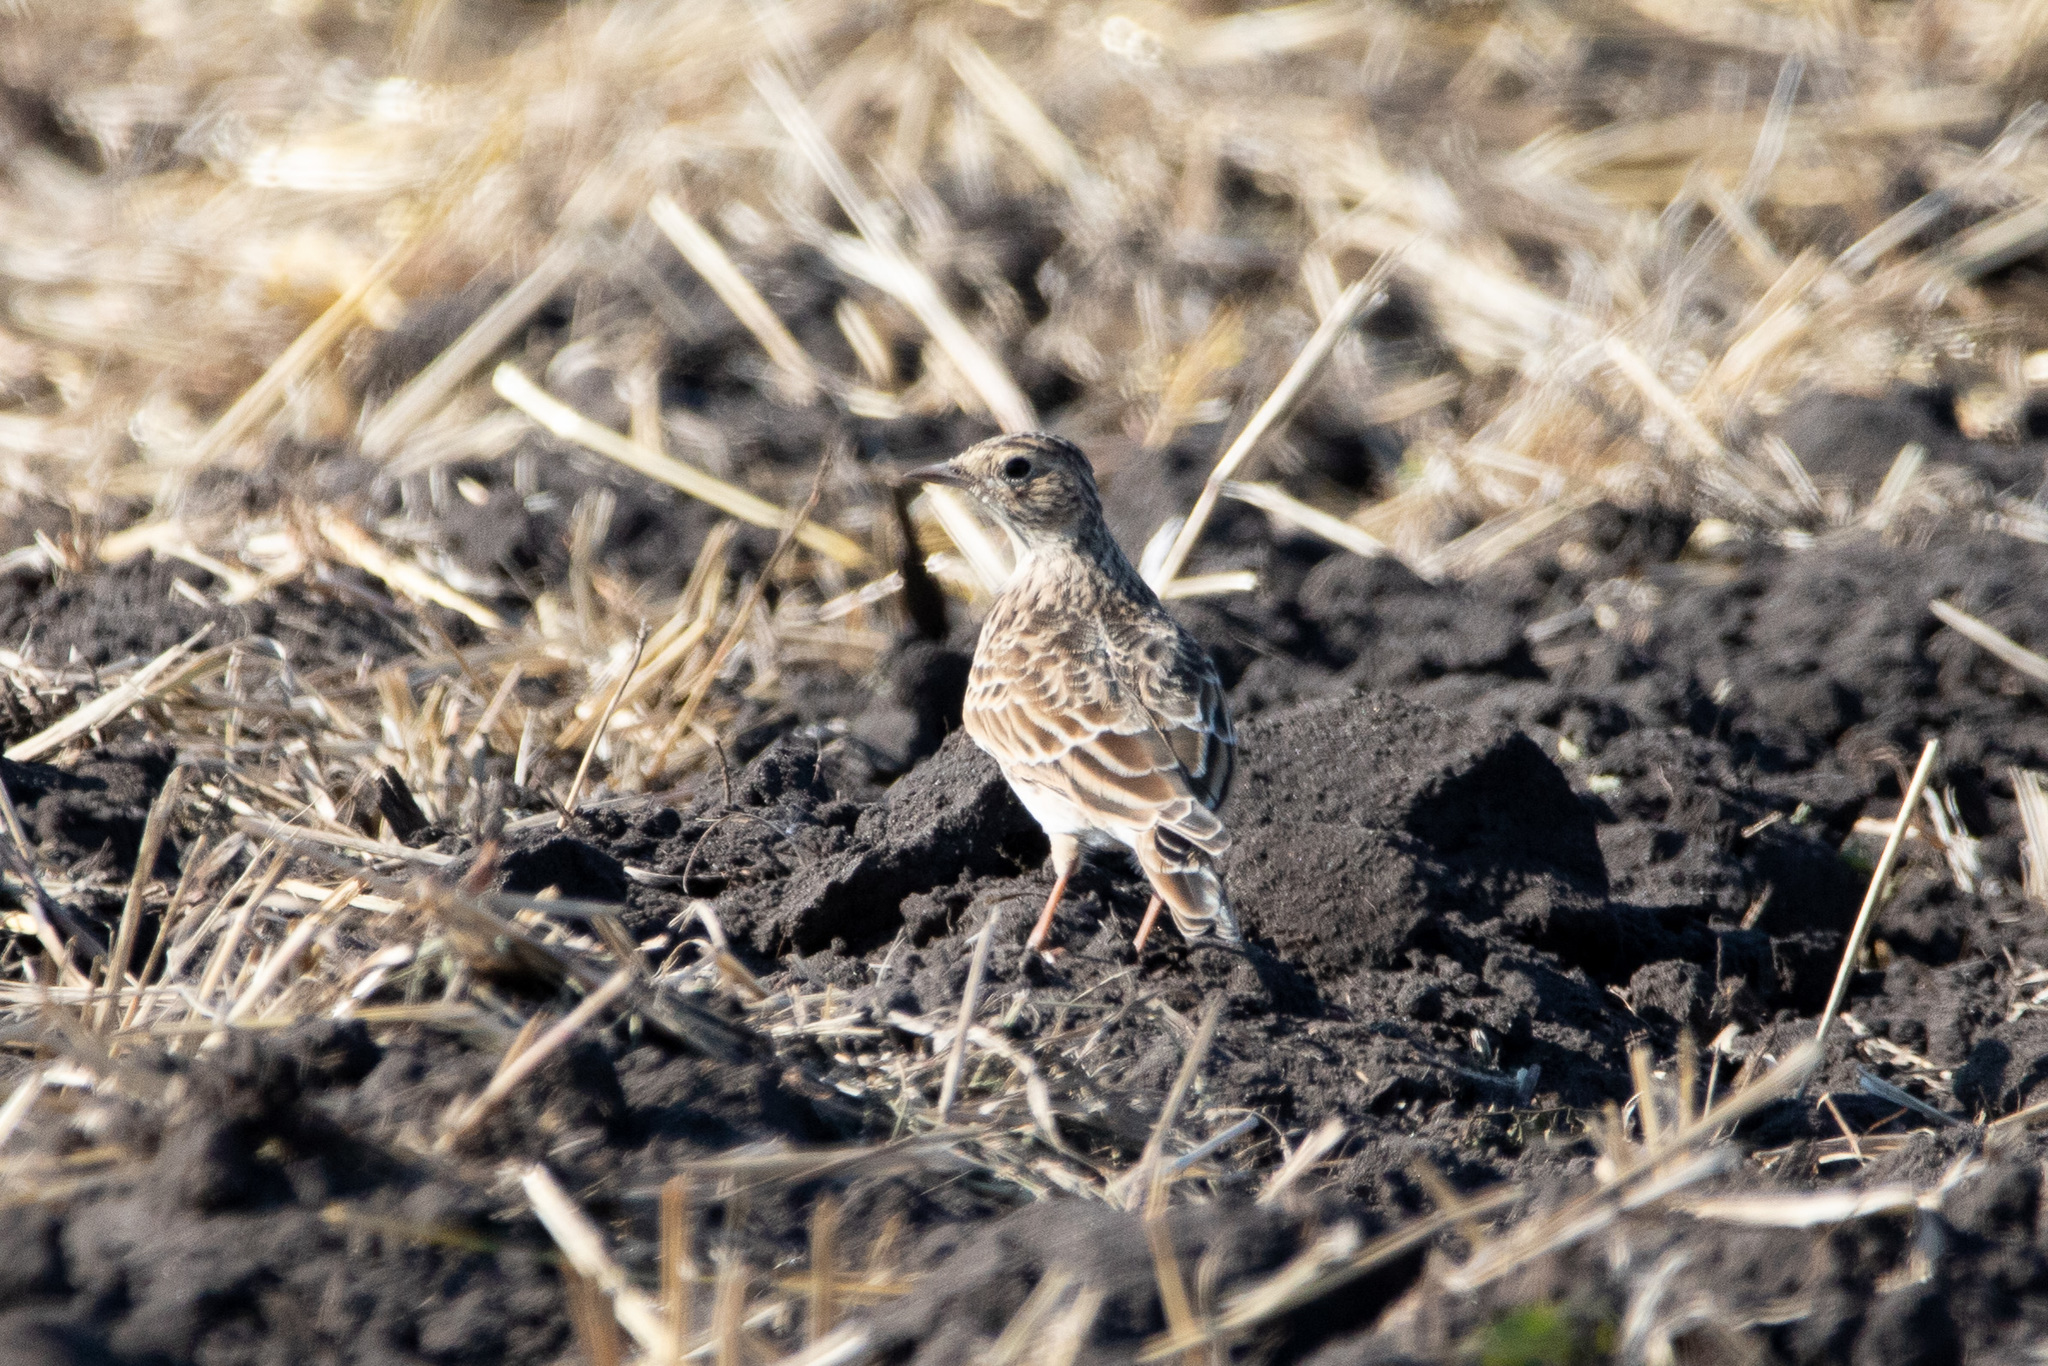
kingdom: Animalia
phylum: Chordata
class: Aves
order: Passeriformes
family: Alaudidae
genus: Alauda
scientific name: Alauda arvensis
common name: Eurasian skylark
